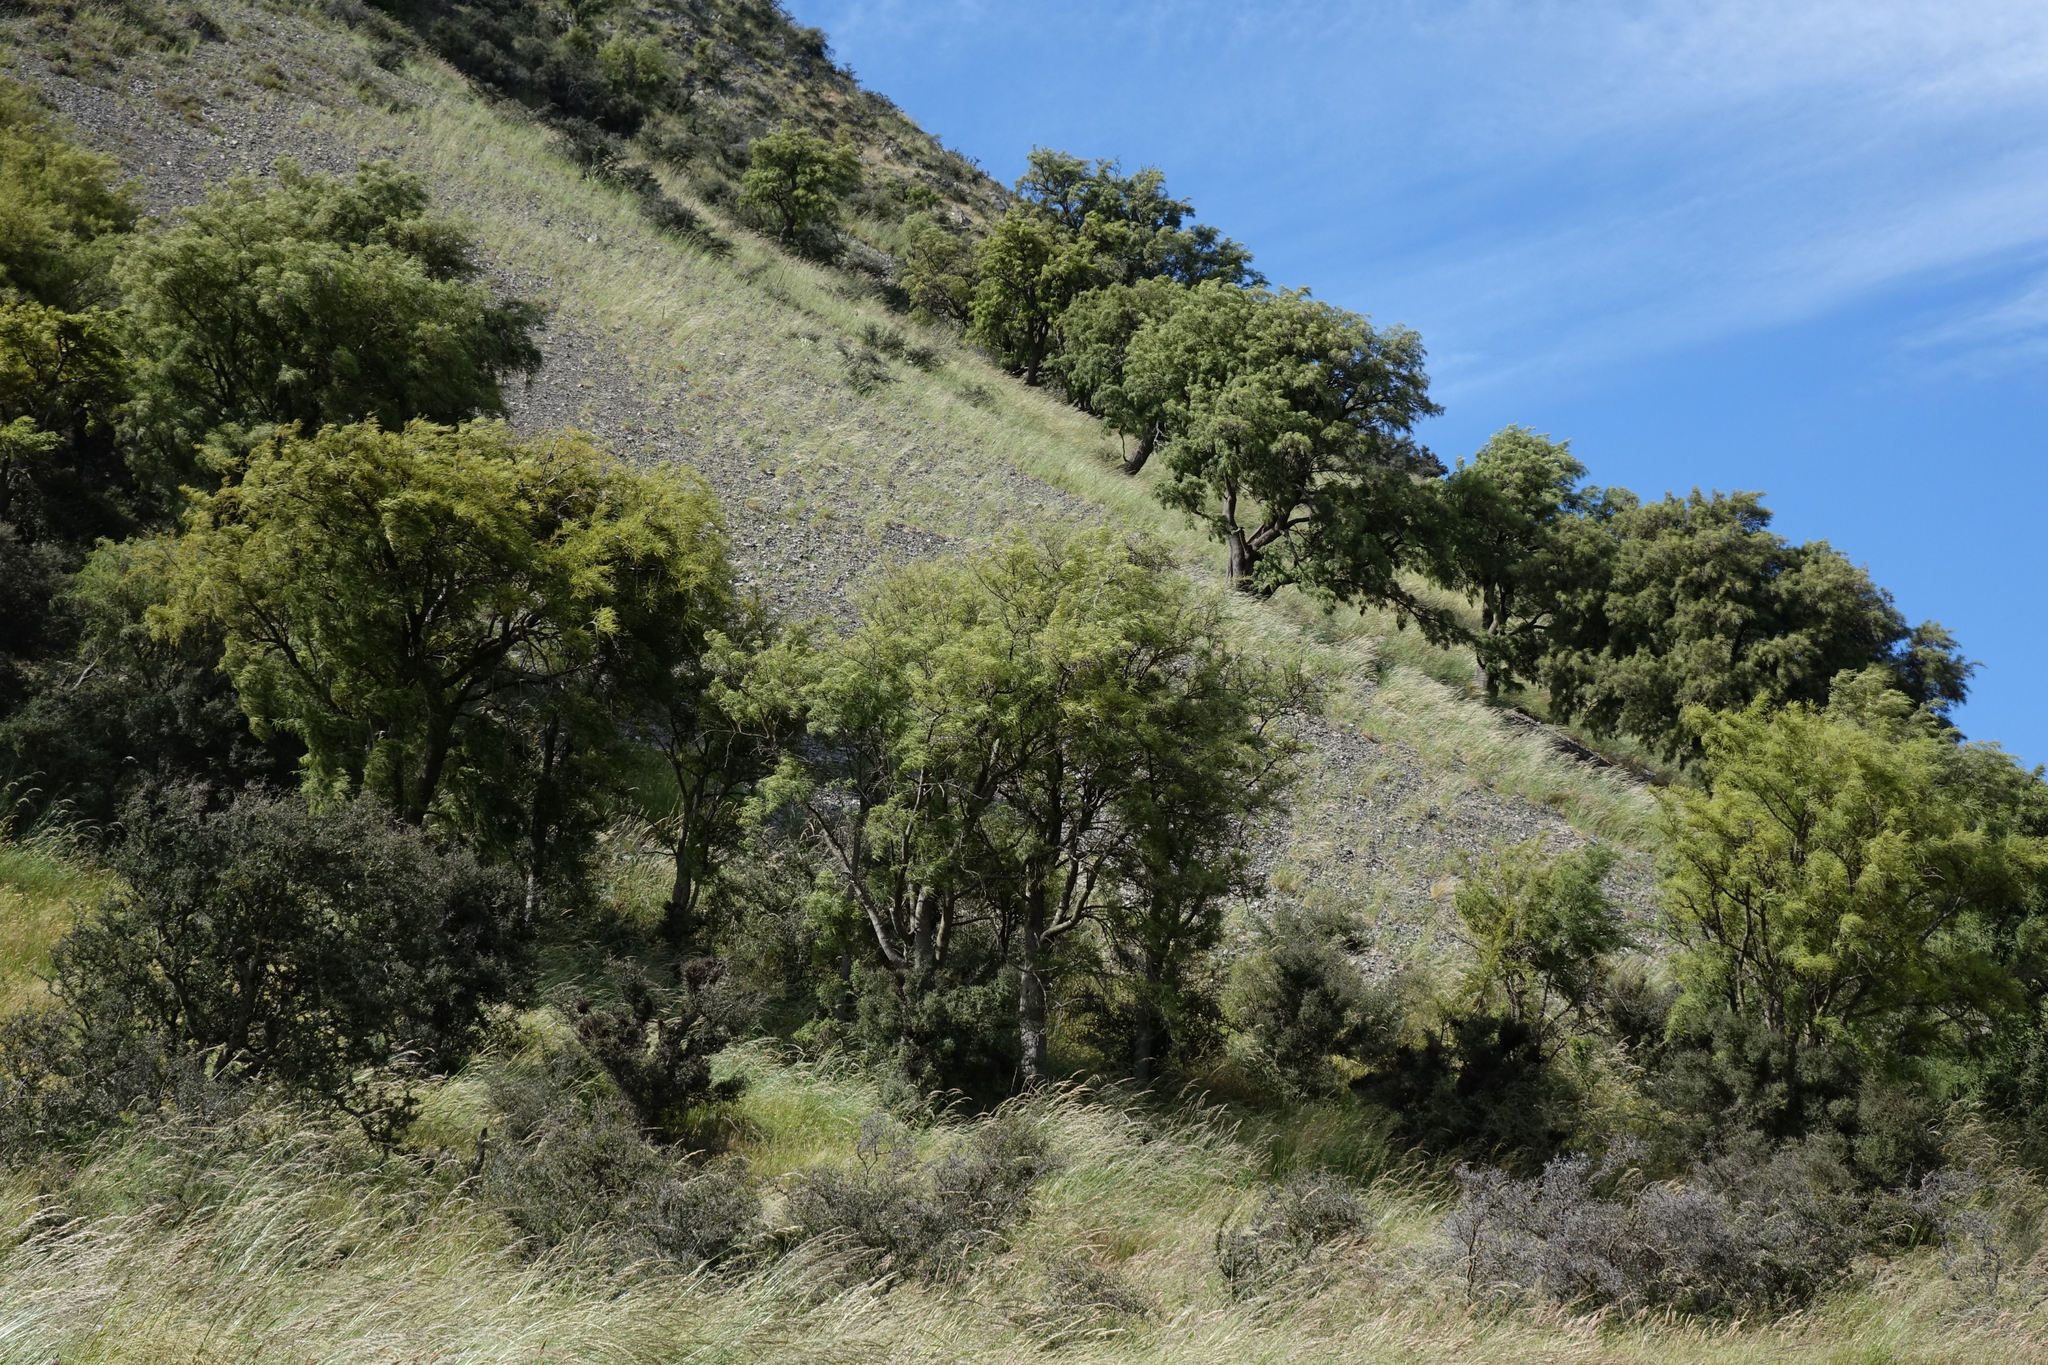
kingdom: Plantae
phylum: Tracheophyta
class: Magnoliopsida
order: Fabales
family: Fabaceae
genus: Sophora
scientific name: Sophora microphylla
